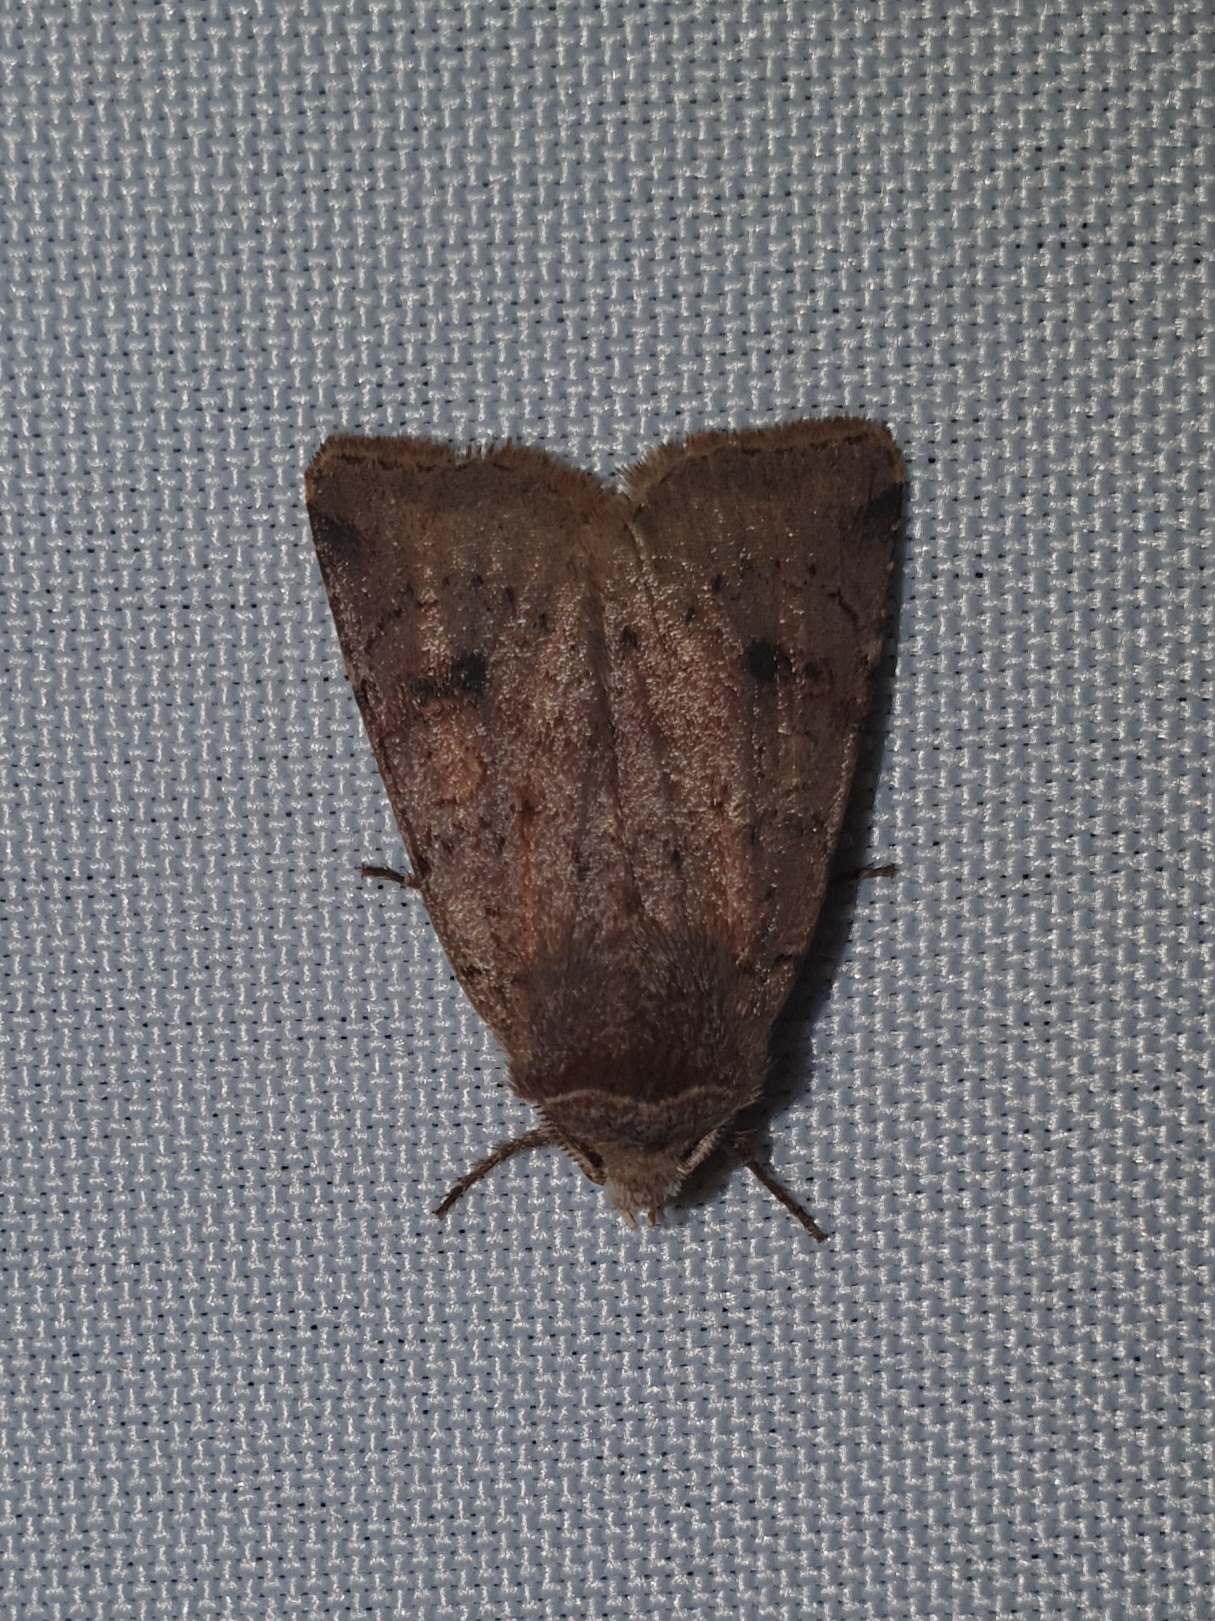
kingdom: Animalia
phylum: Arthropoda
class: Insecta
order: Lepidoptera
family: Noctuidae
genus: Cerastis
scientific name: Cerastis faceta
